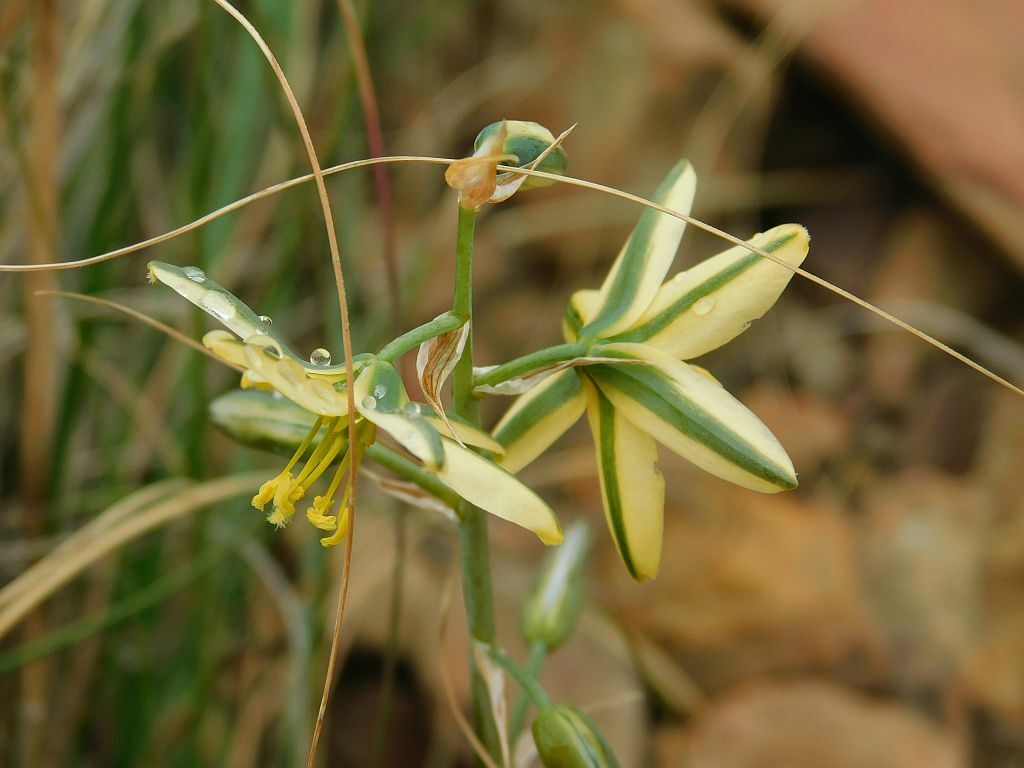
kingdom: Plantae
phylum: Tracheophyta
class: Liliopsida
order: Asparagales
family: Asparagaceae
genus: Albuca
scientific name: Albuca suaveolens
